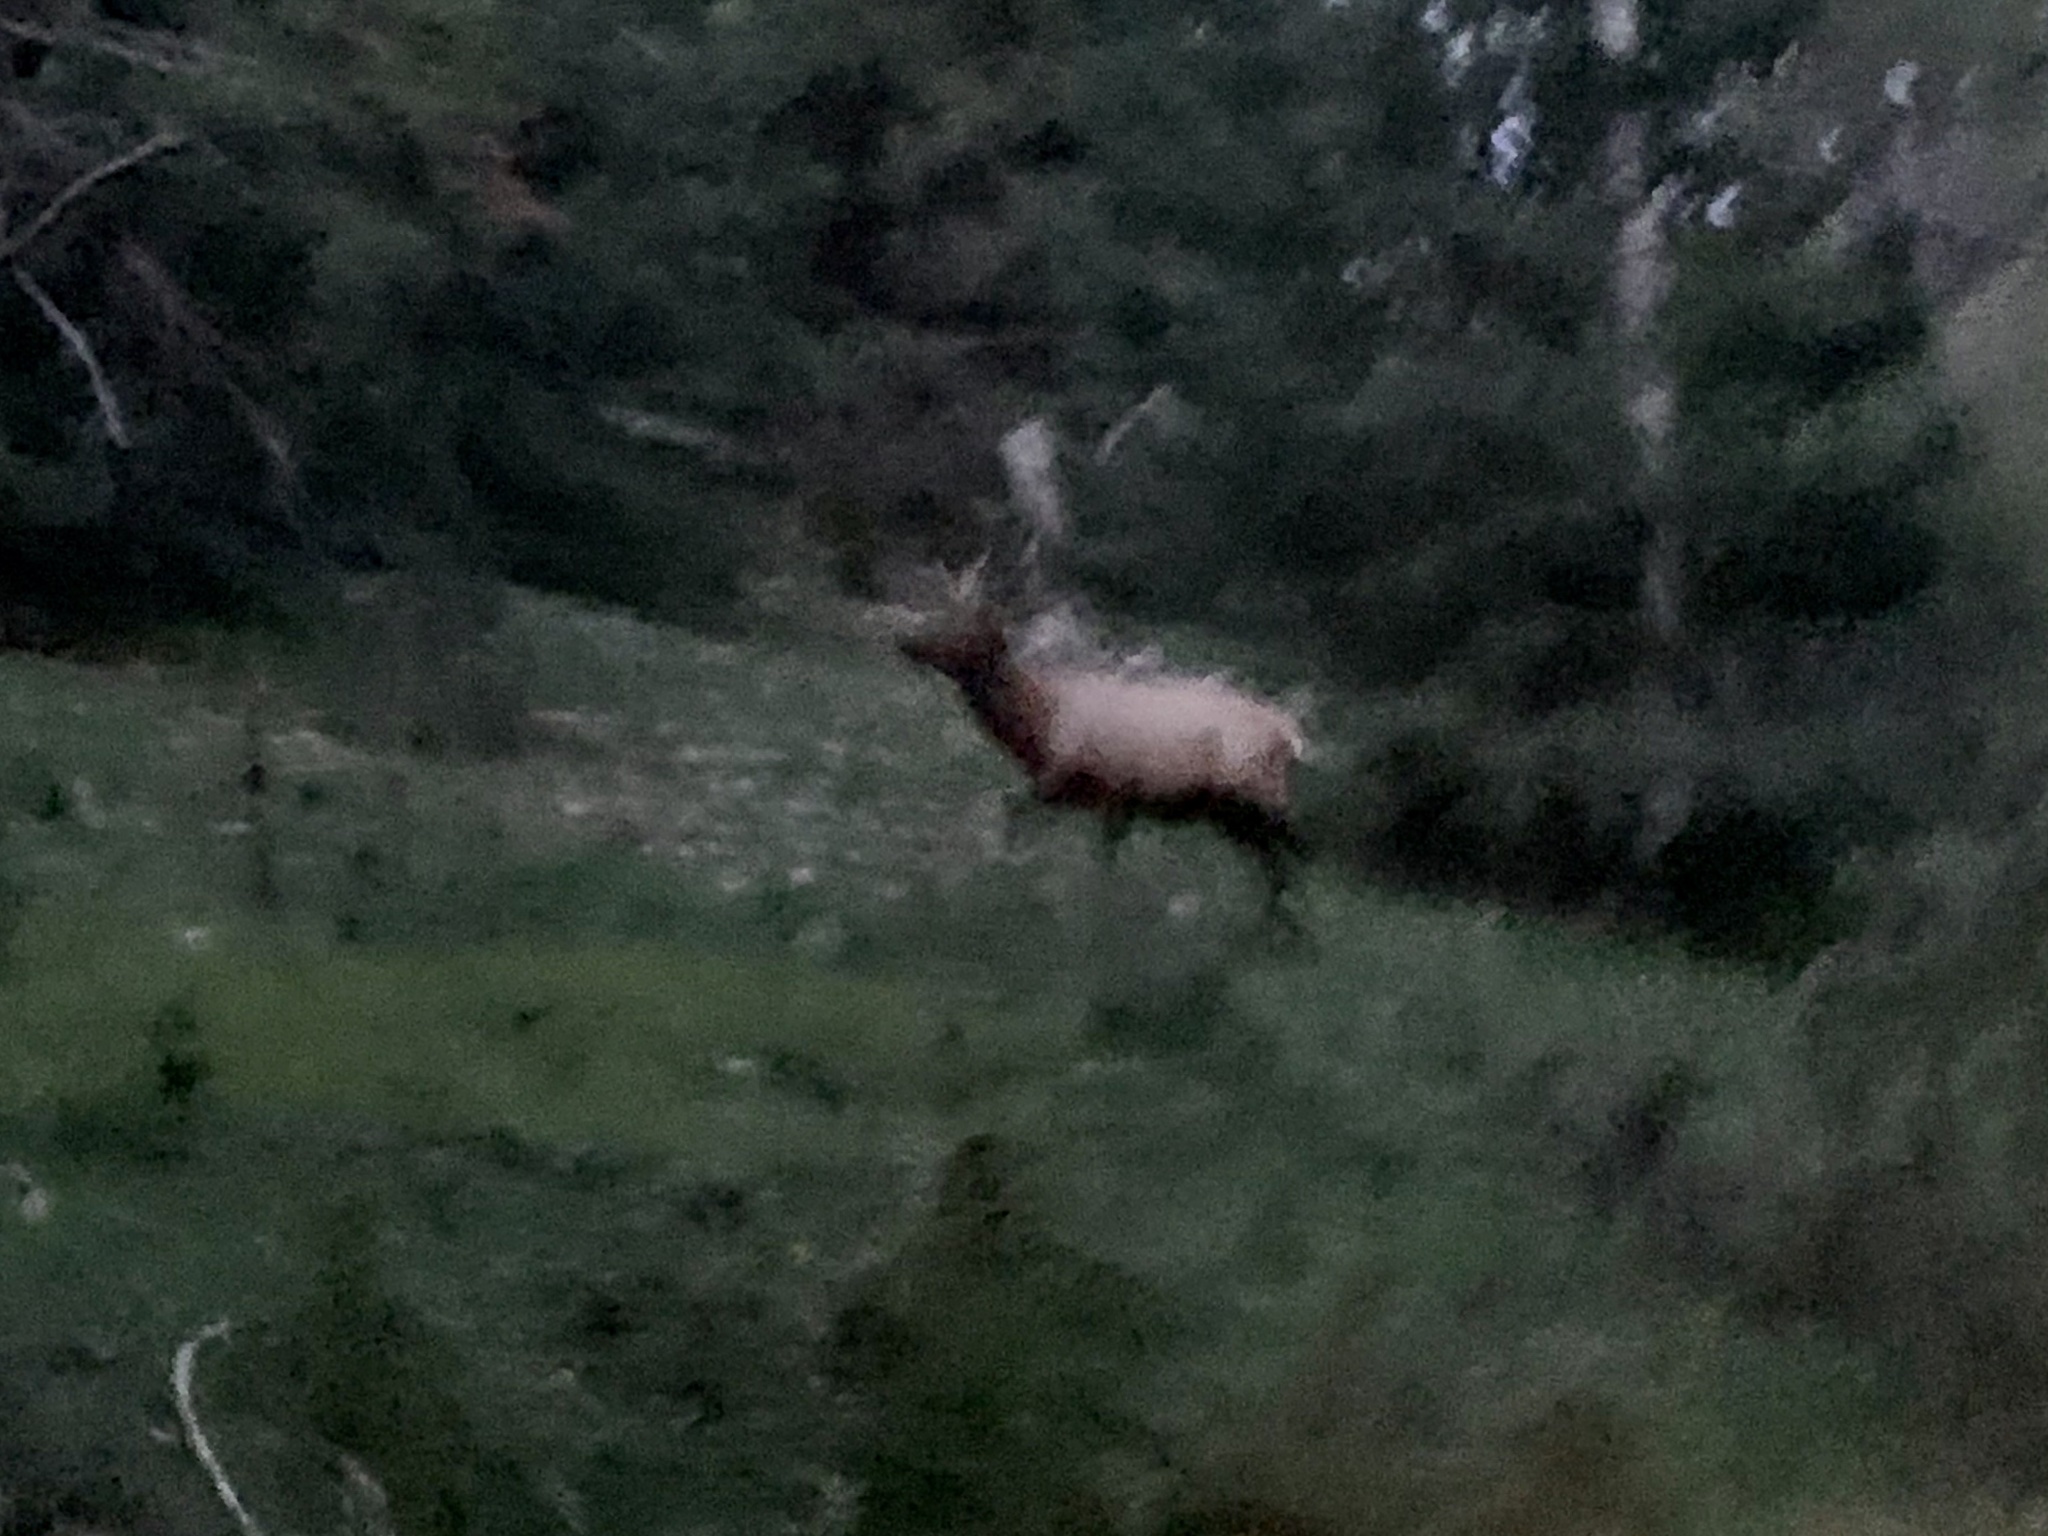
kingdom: Animalia
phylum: Chordata
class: Mammalia
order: Artiodactyla
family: Cervidae
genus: Cervus
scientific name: Cervus elaphus
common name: Red deer
